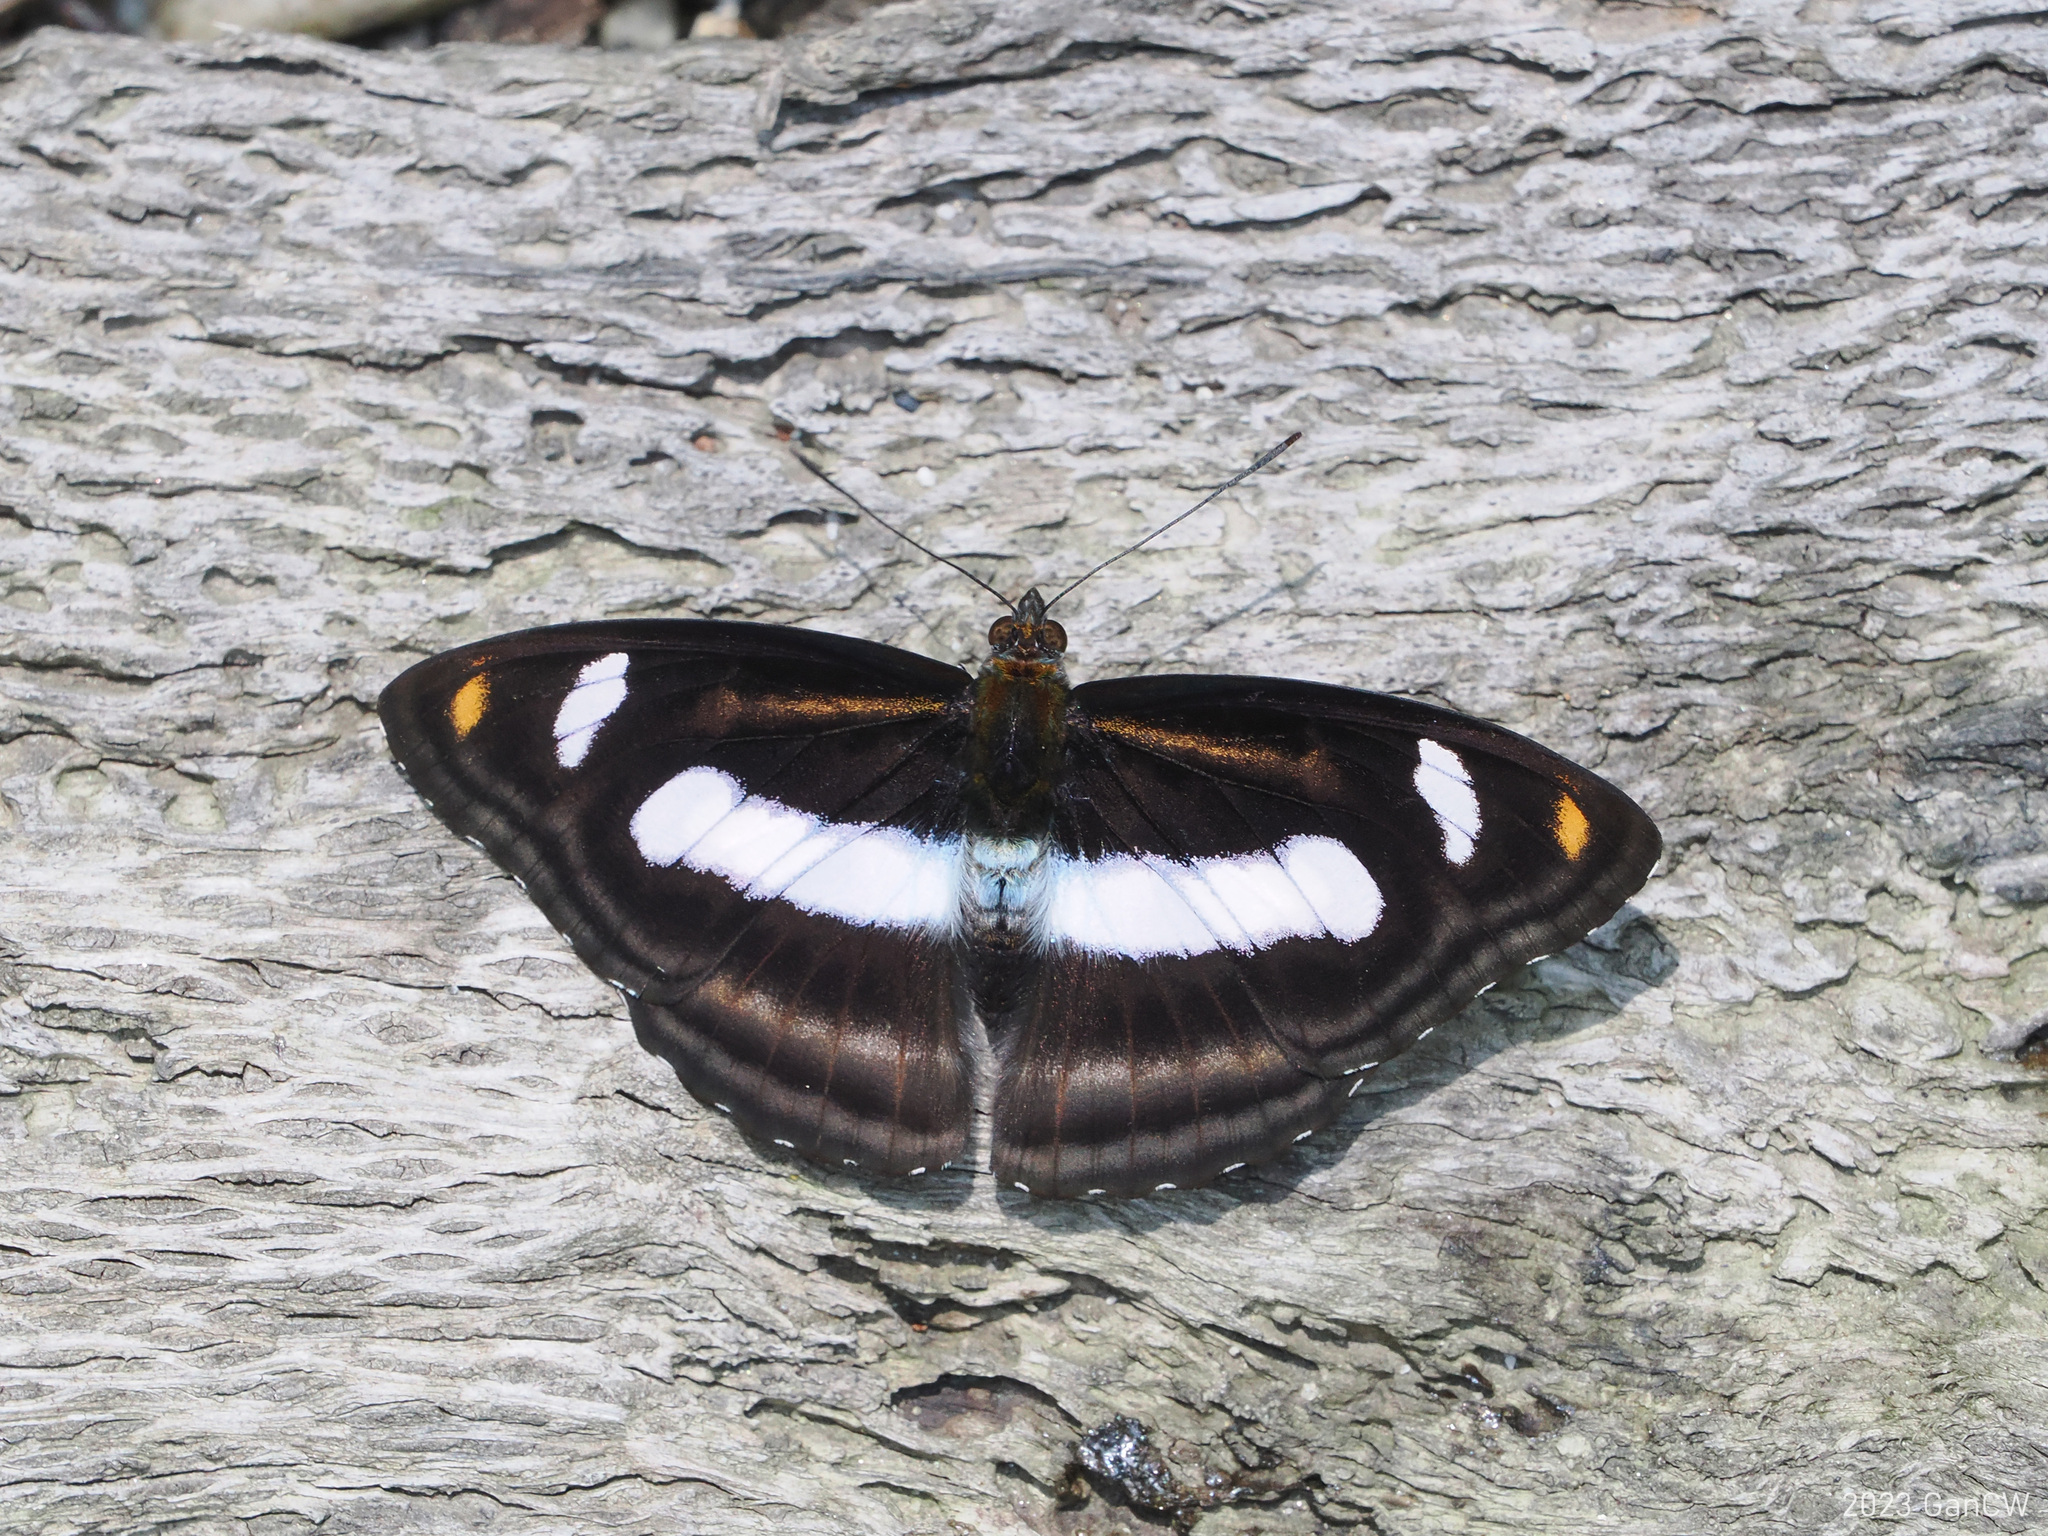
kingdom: Animalia
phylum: Arthropoda
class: Insecta
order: Lepidoptera
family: Nymphalidae
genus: Pantoporia
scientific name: Pantoporia cama
